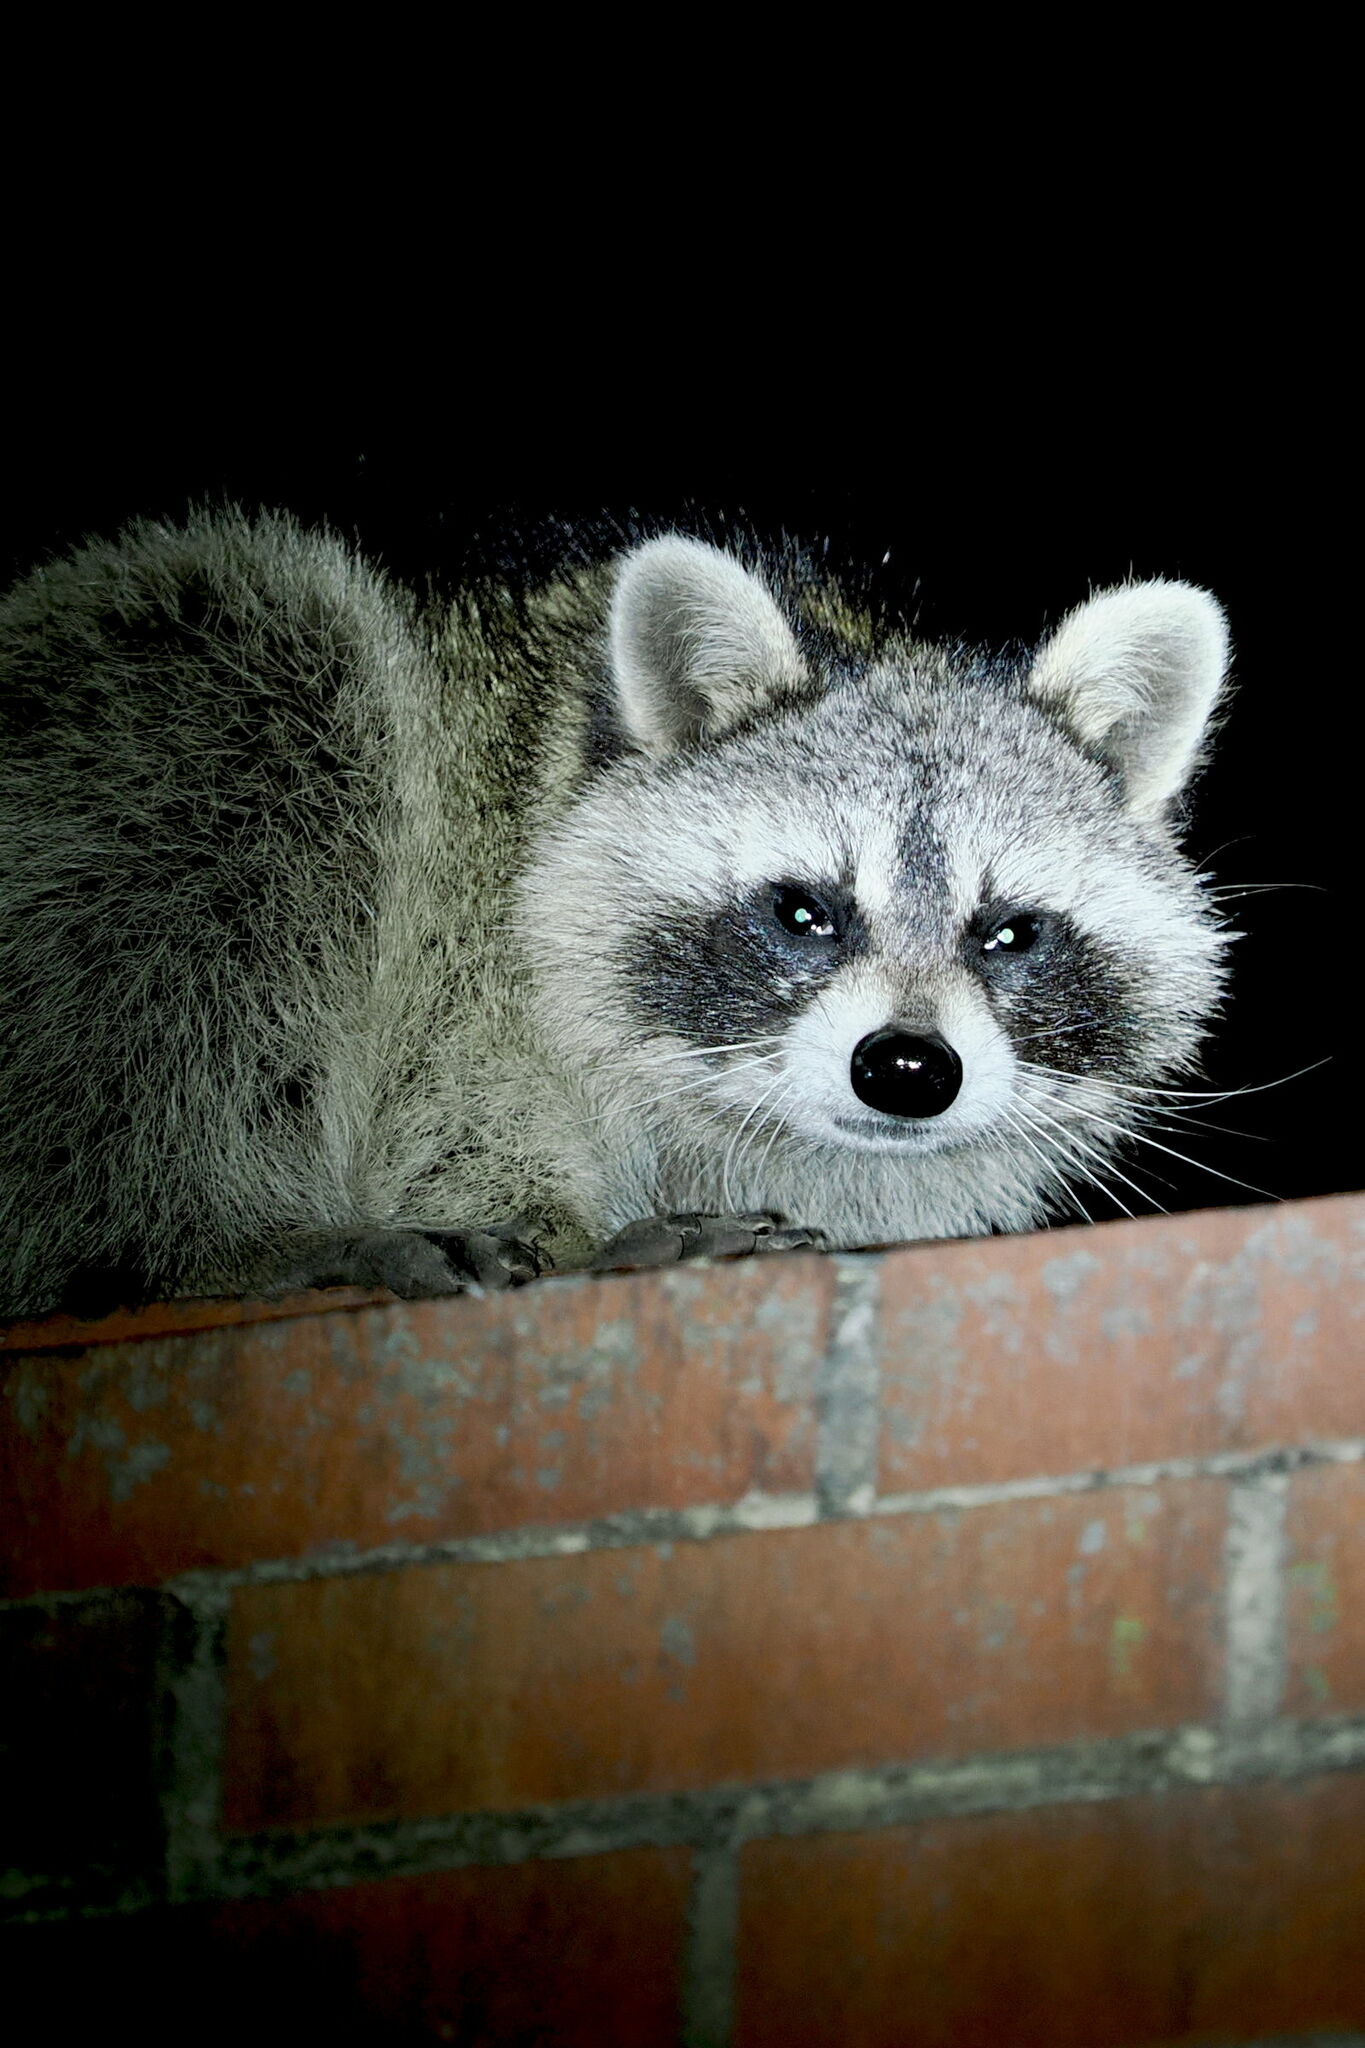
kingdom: Animalia
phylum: Chordata
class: Mammalia
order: Carnivora
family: Procyonidae
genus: Procyon
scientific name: Procyon lotor
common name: Raccoon
